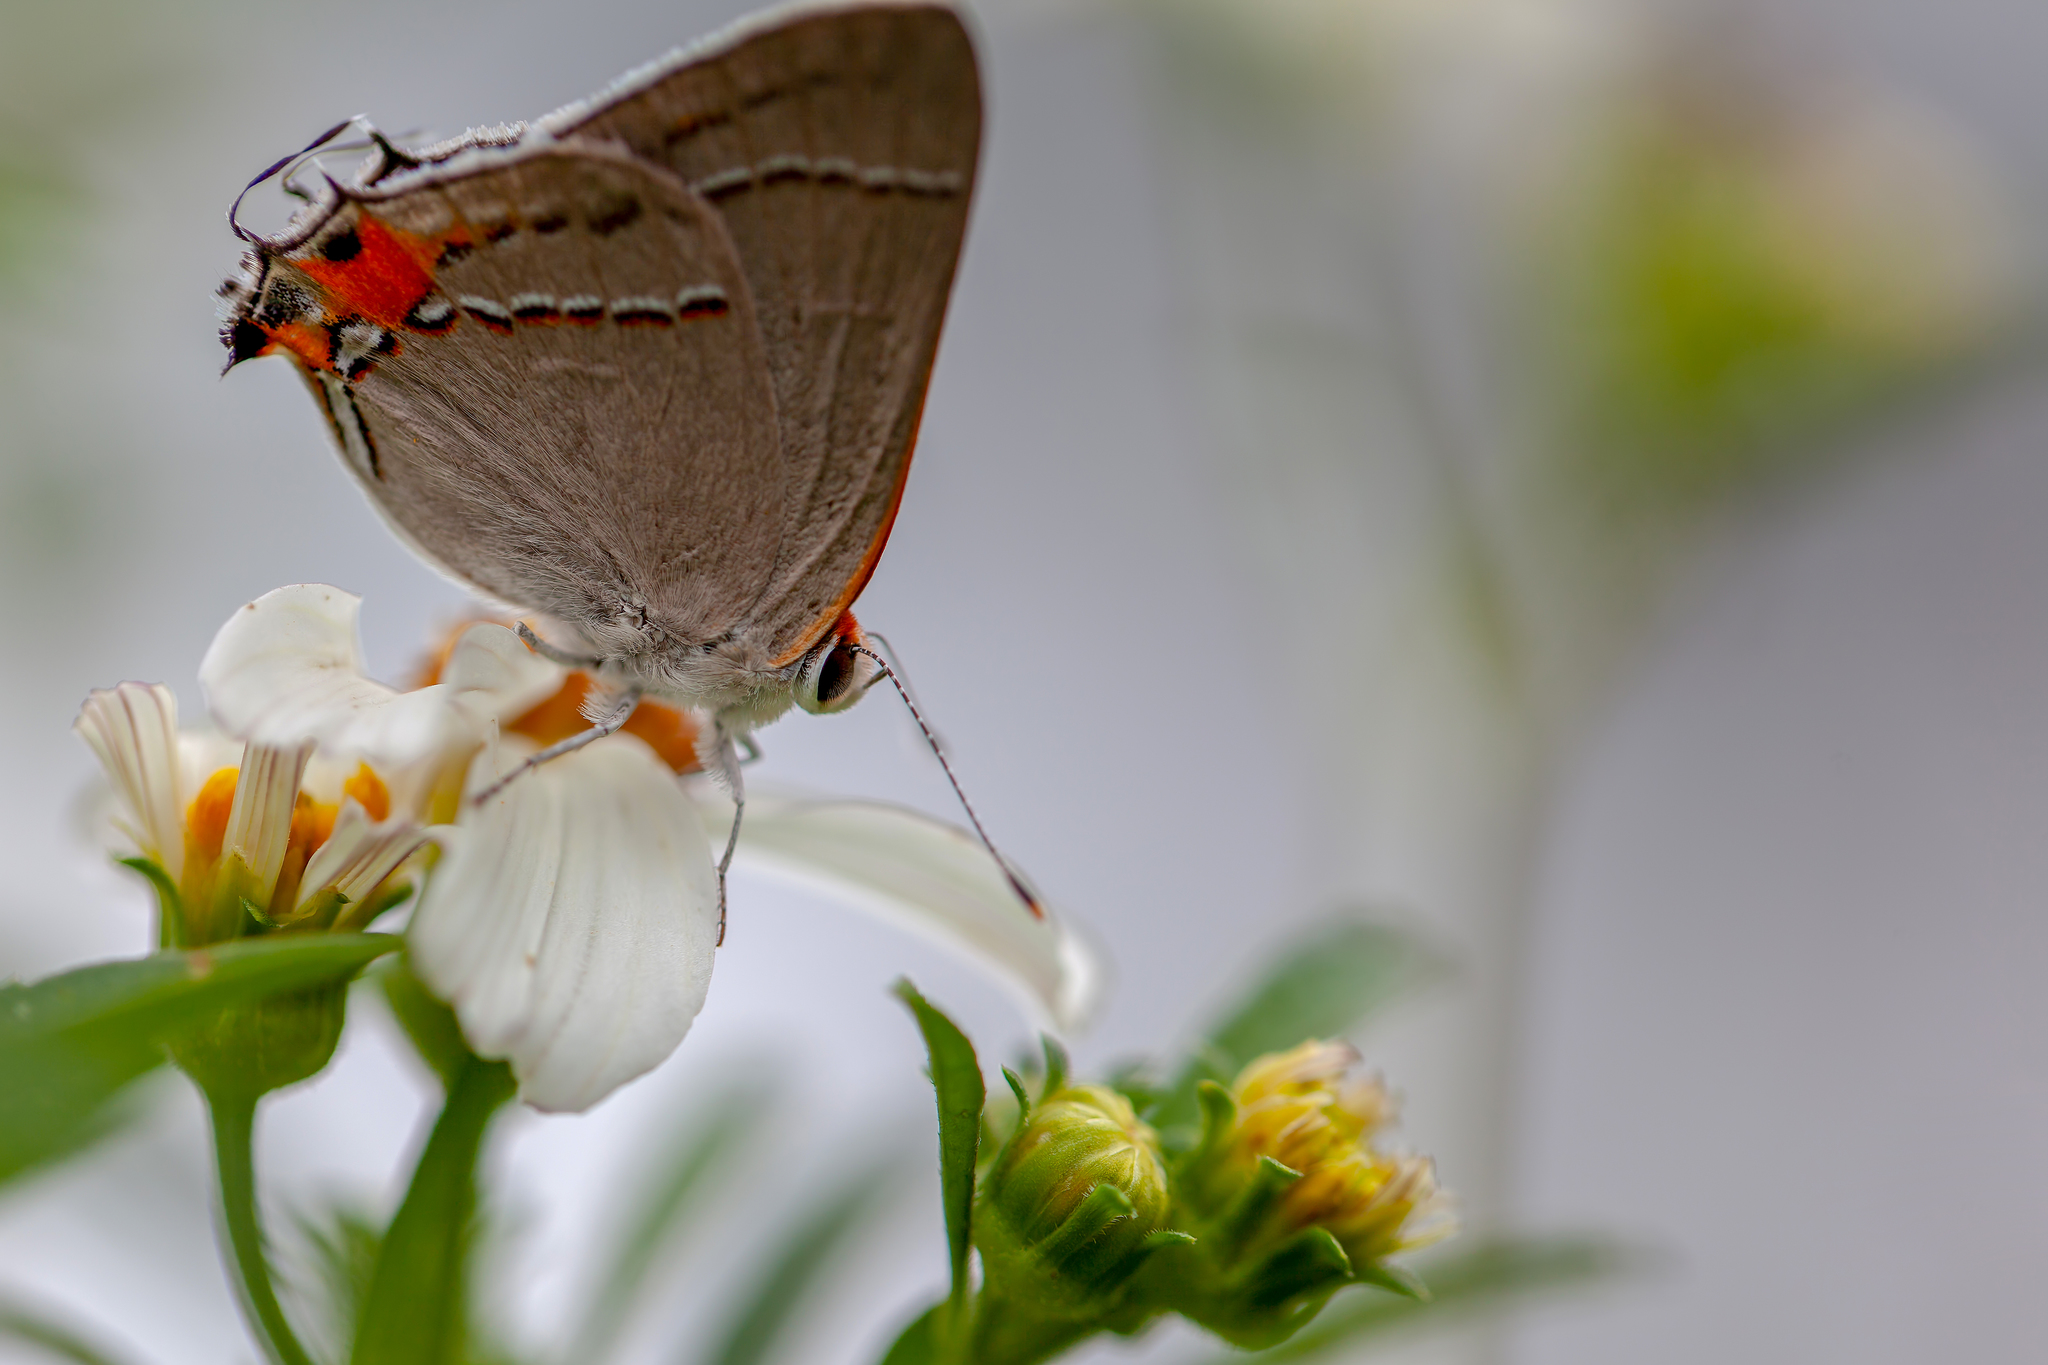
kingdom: Animalia
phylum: Arthropoda
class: Insecta
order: Lepidoptera
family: Lycaenidae
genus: Strymon
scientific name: Strymon melinus
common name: Gray hairstreak
